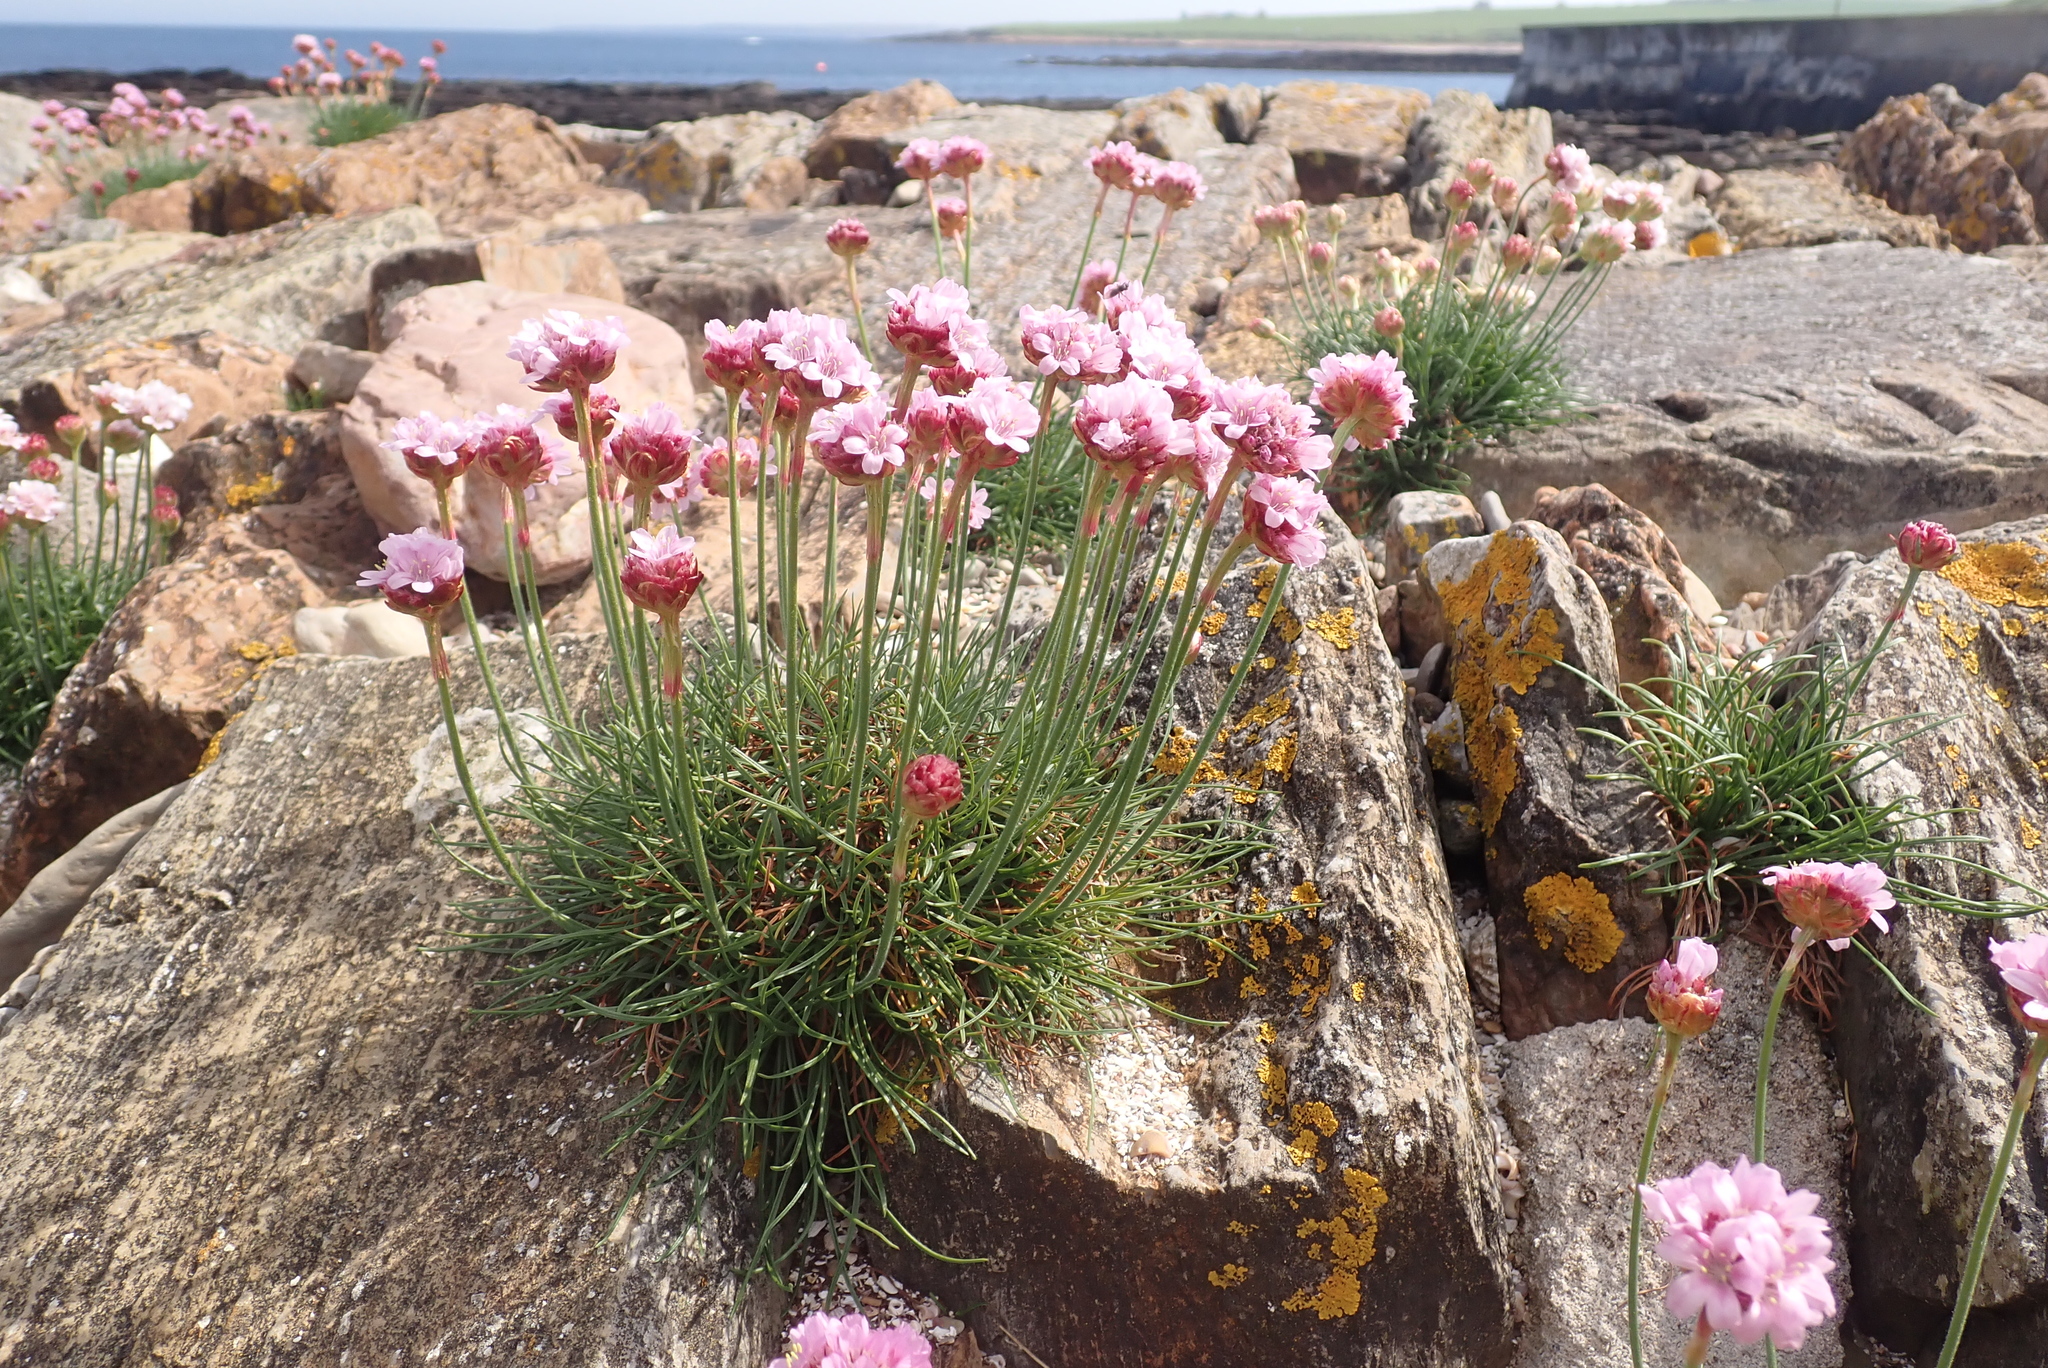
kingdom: Plantae
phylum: Tracheophyta
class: Magnoliopsida
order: Caryophyllales
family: Plumbaginaceae
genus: Armeria
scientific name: Armeria maritima
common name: Thrift
